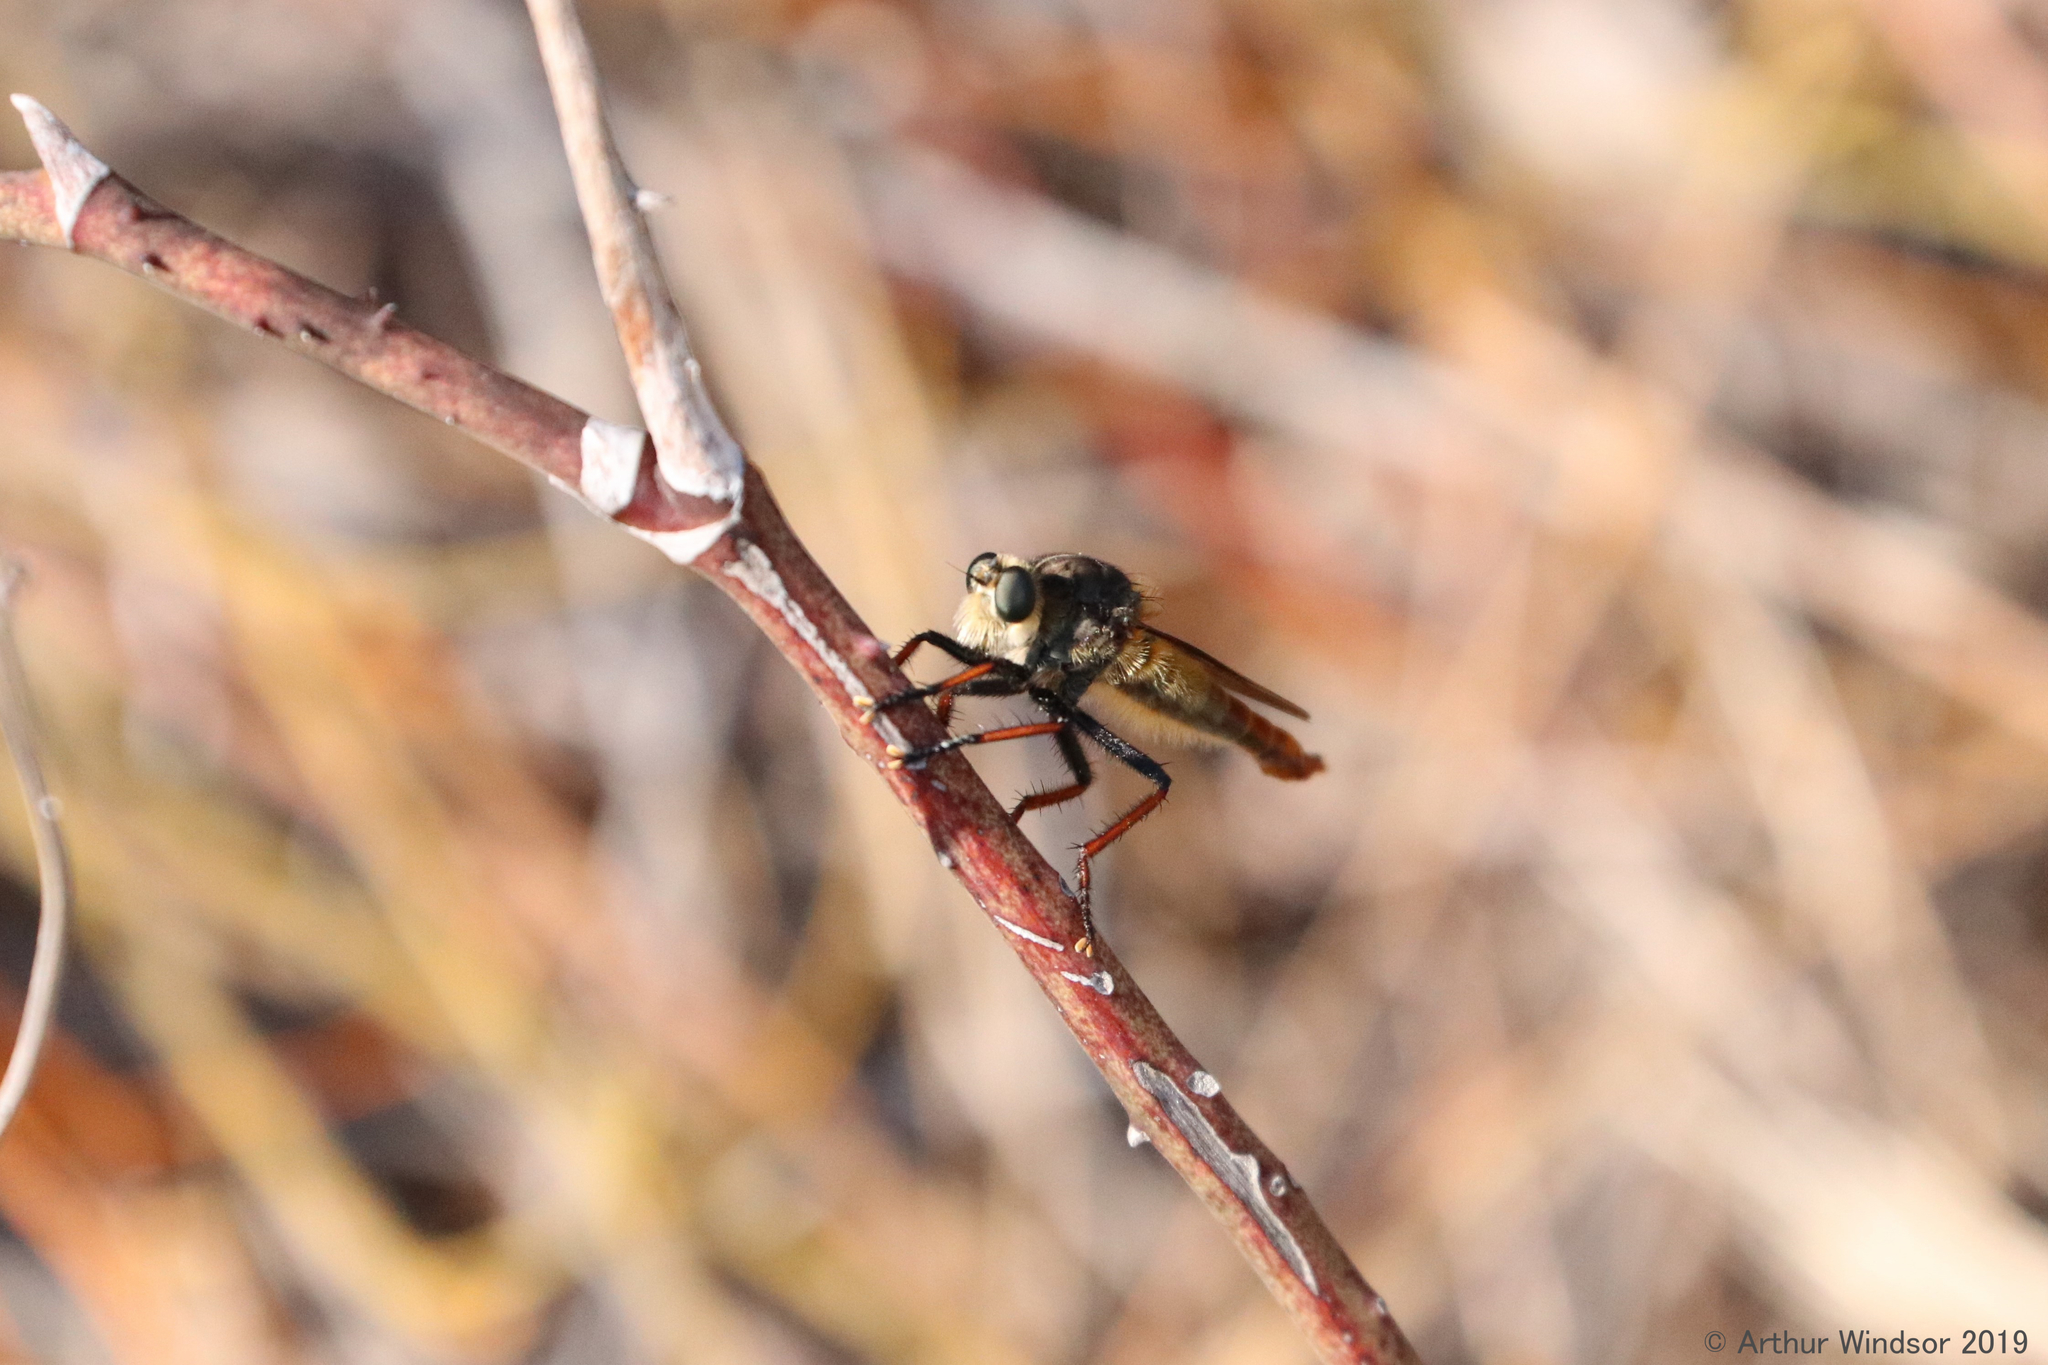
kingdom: Animalia
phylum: Arthropoda
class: Insecta
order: Diptera
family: Asilidae
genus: Proctacanthus
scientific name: Proctacanthus fulviventris
